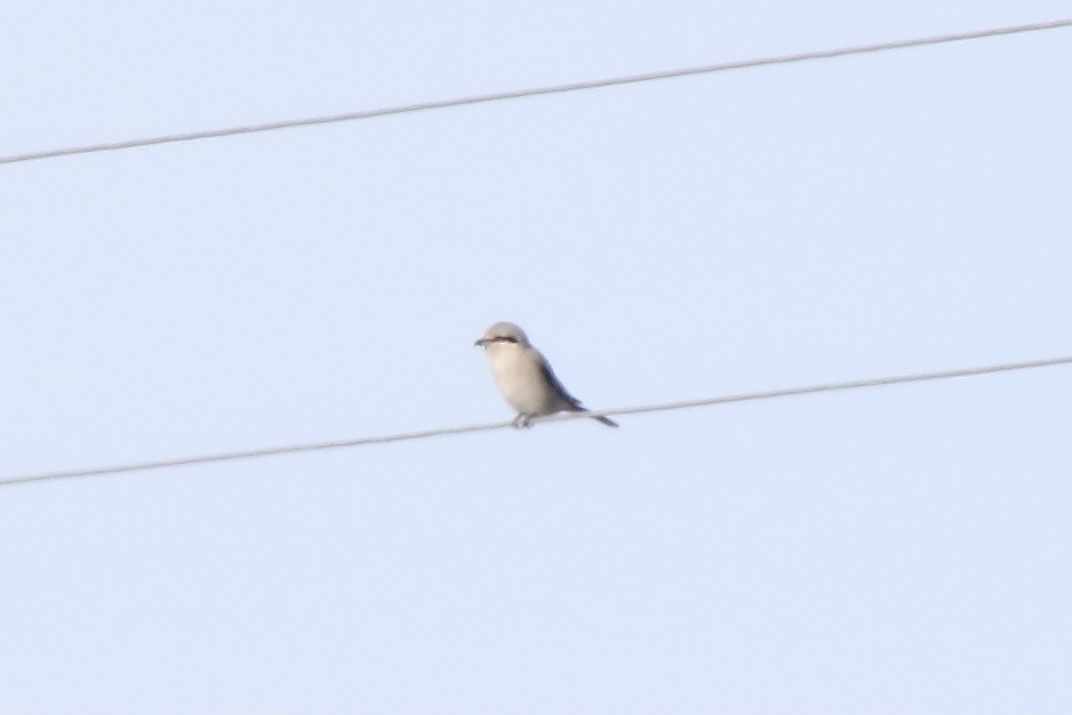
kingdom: Animalia
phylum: Chordata
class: Aves
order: Passeriformes
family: Laniidae
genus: Lanius
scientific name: Lanius borealis
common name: Northern shrike
